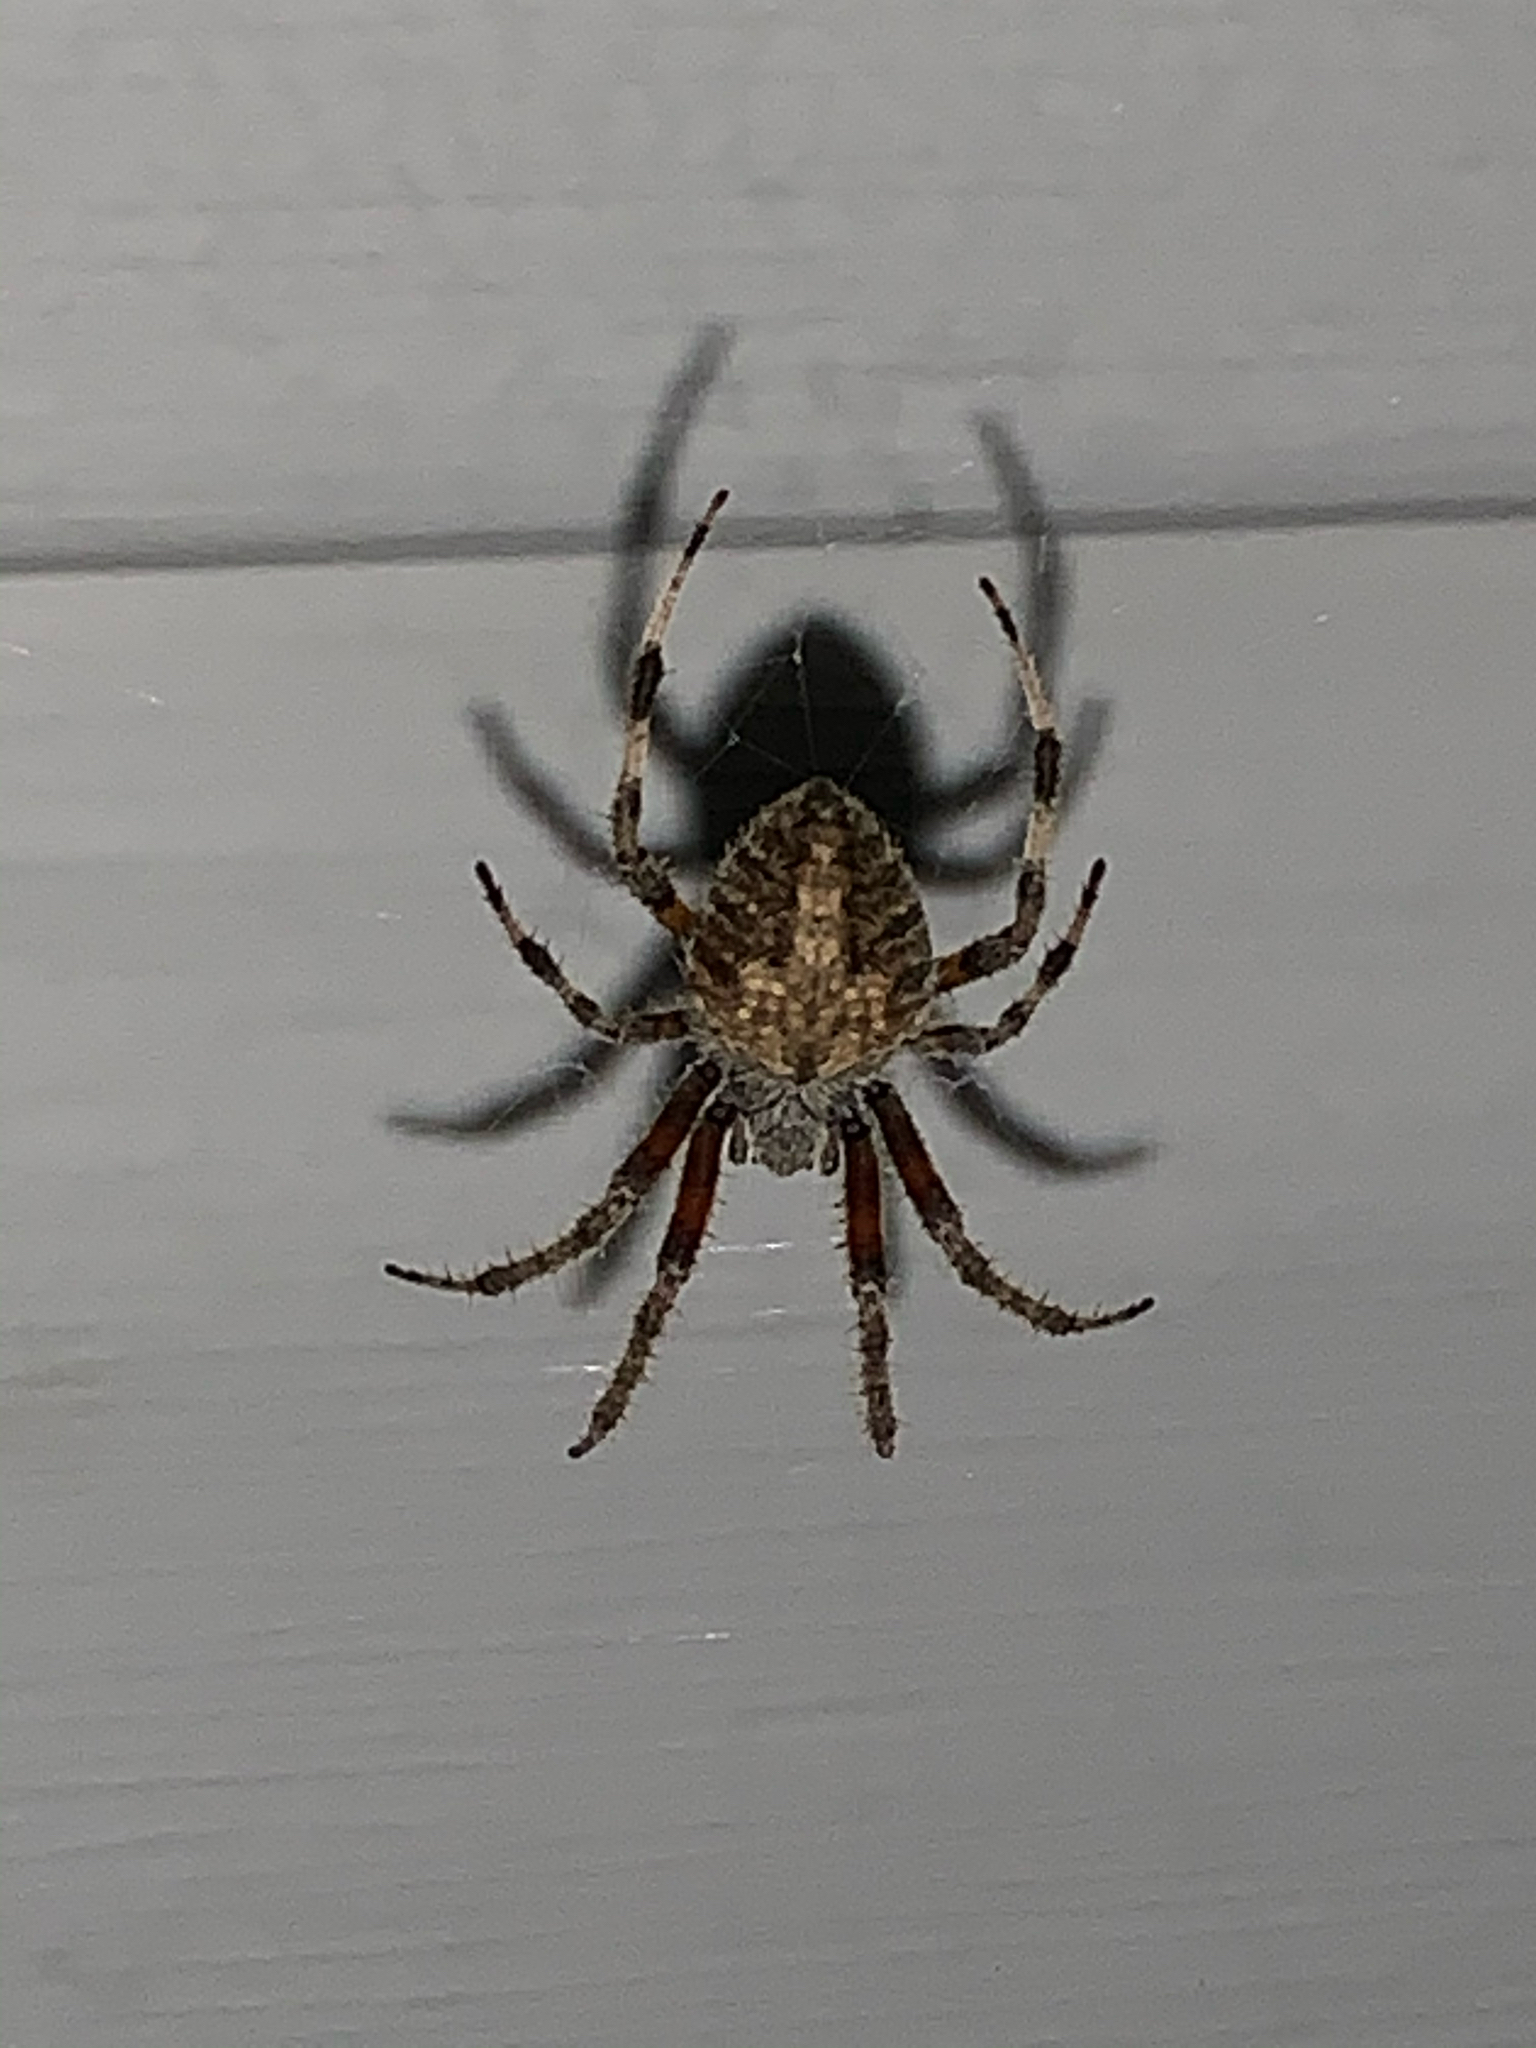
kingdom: Animalia
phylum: Arthropoda
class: Arachnida
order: Araneae
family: Araneidae
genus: Neoscona
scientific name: Neoscona crucifera
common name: Spotted orbweaver
